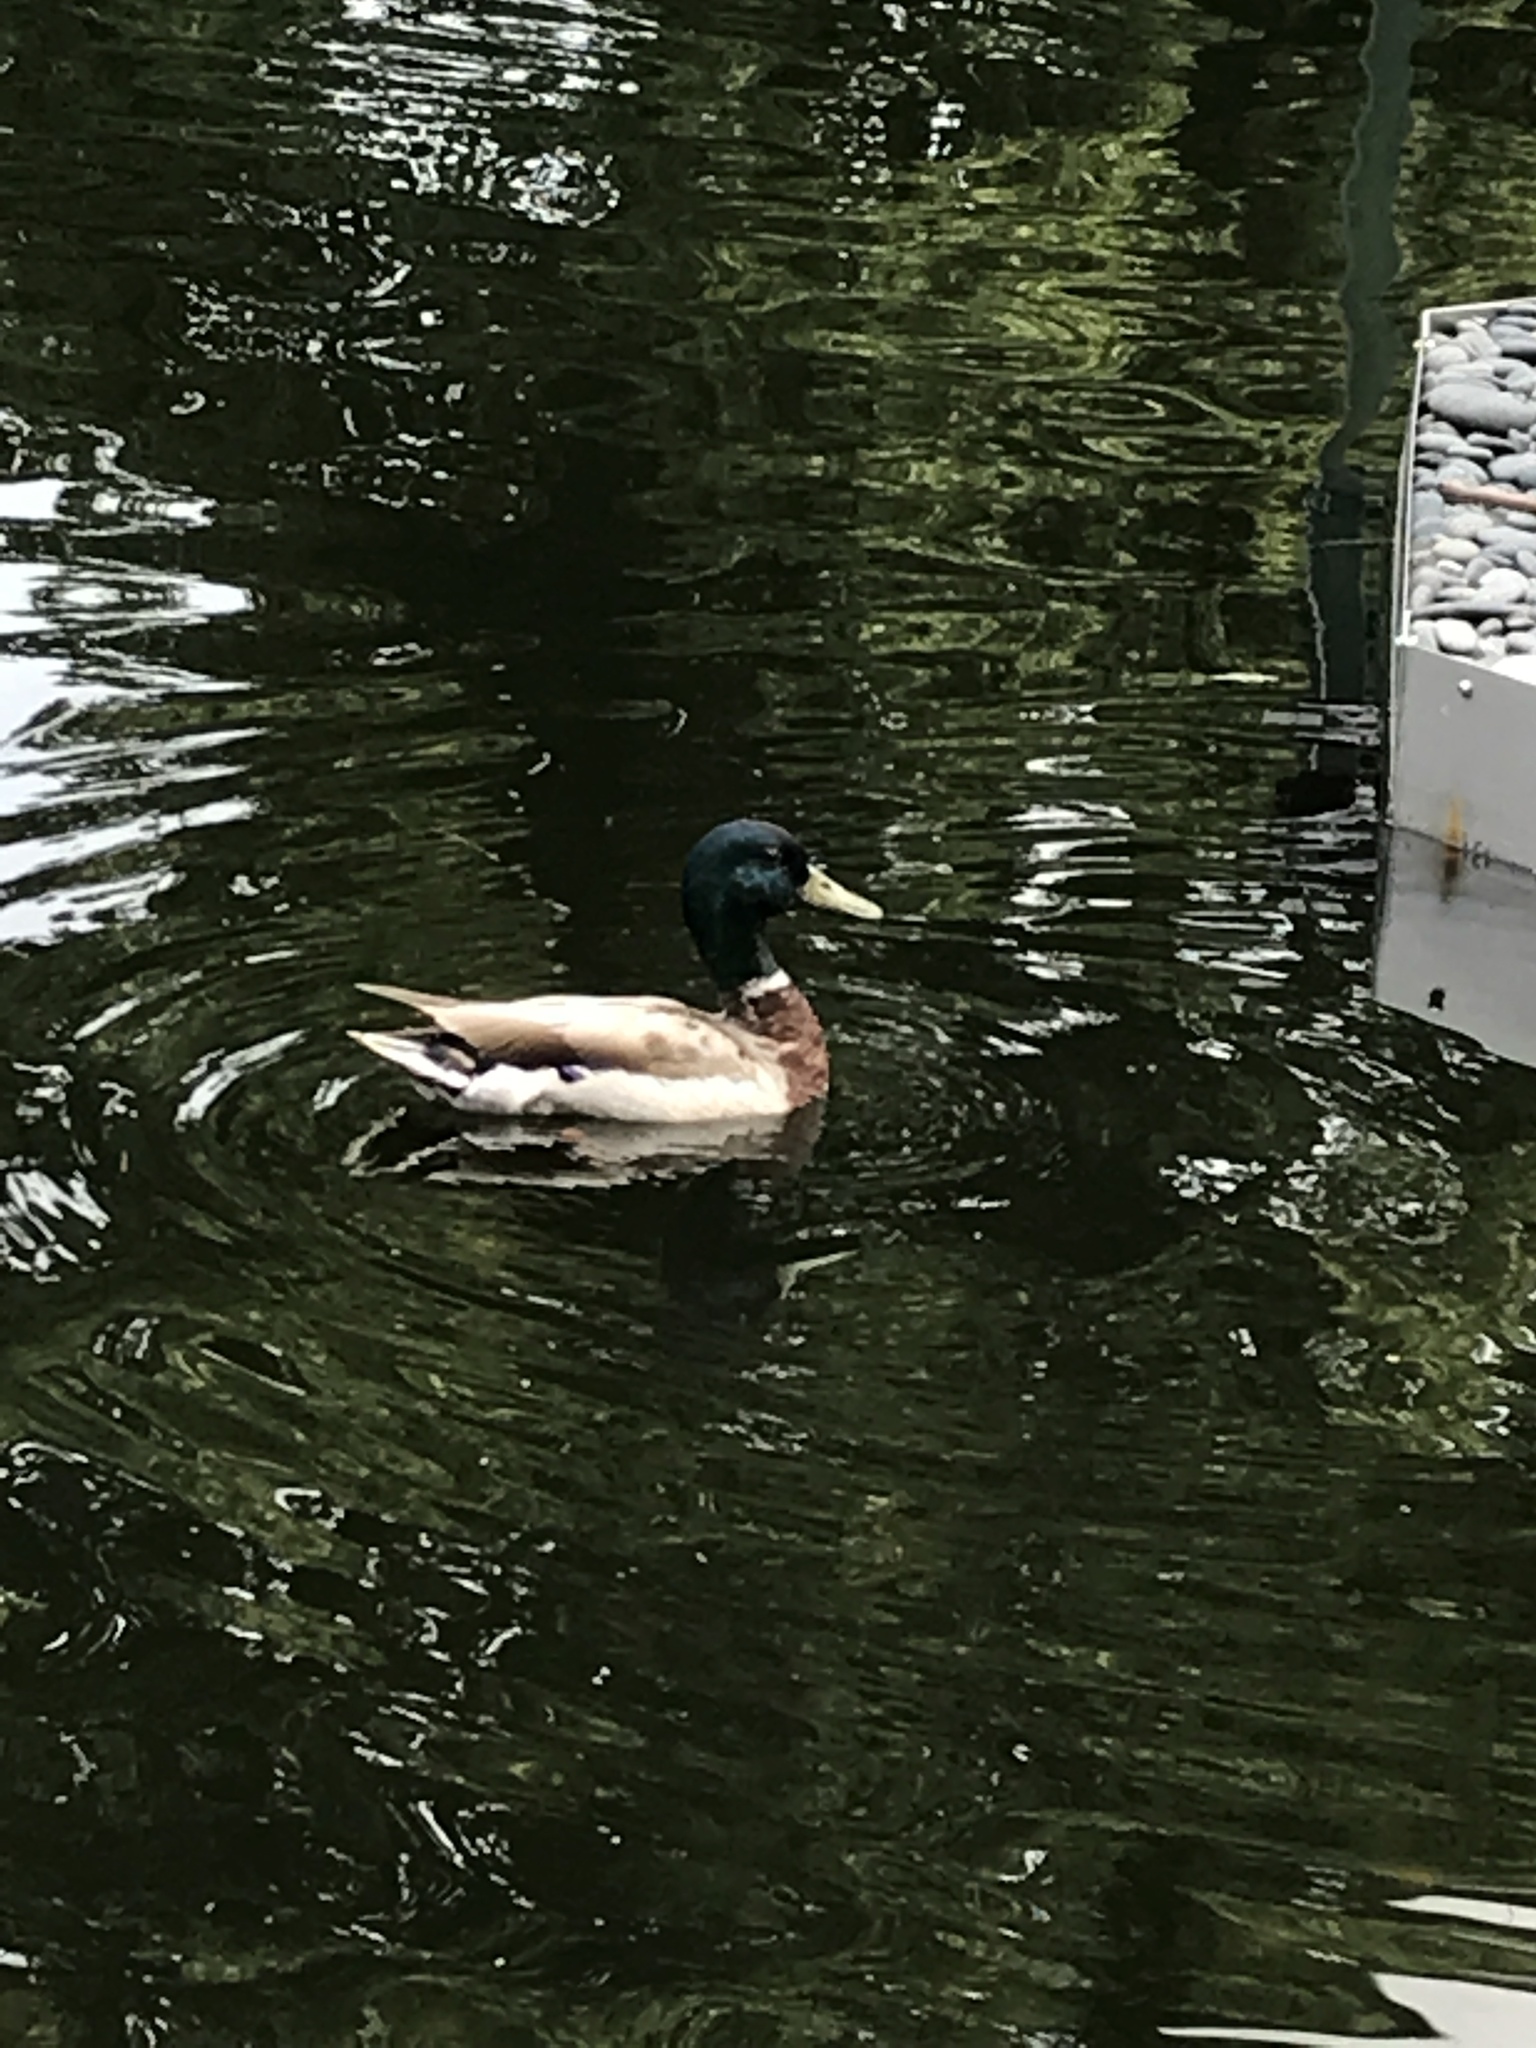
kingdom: Animalia
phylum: Chordata
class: Aves
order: Anseriformes
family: Anatidae
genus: Anas
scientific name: Anas platyrhynchos
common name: Mallard
